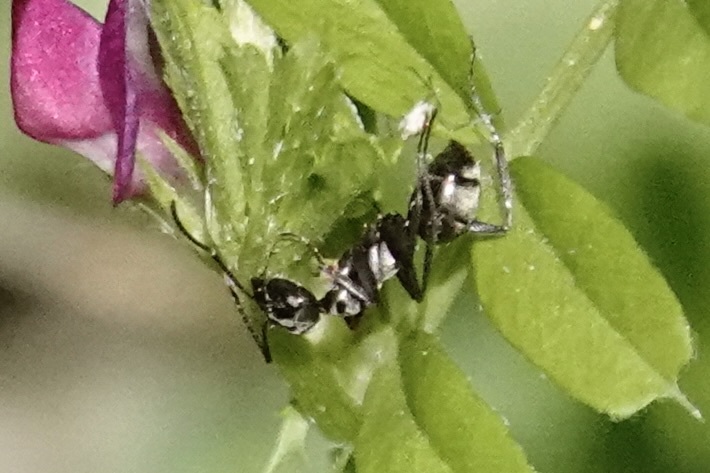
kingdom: Animalia
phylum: Arthropoda
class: Insecta
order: Hymenoptera
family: Formicidae
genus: Formica
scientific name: Formica subsericea
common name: Silky field ant
